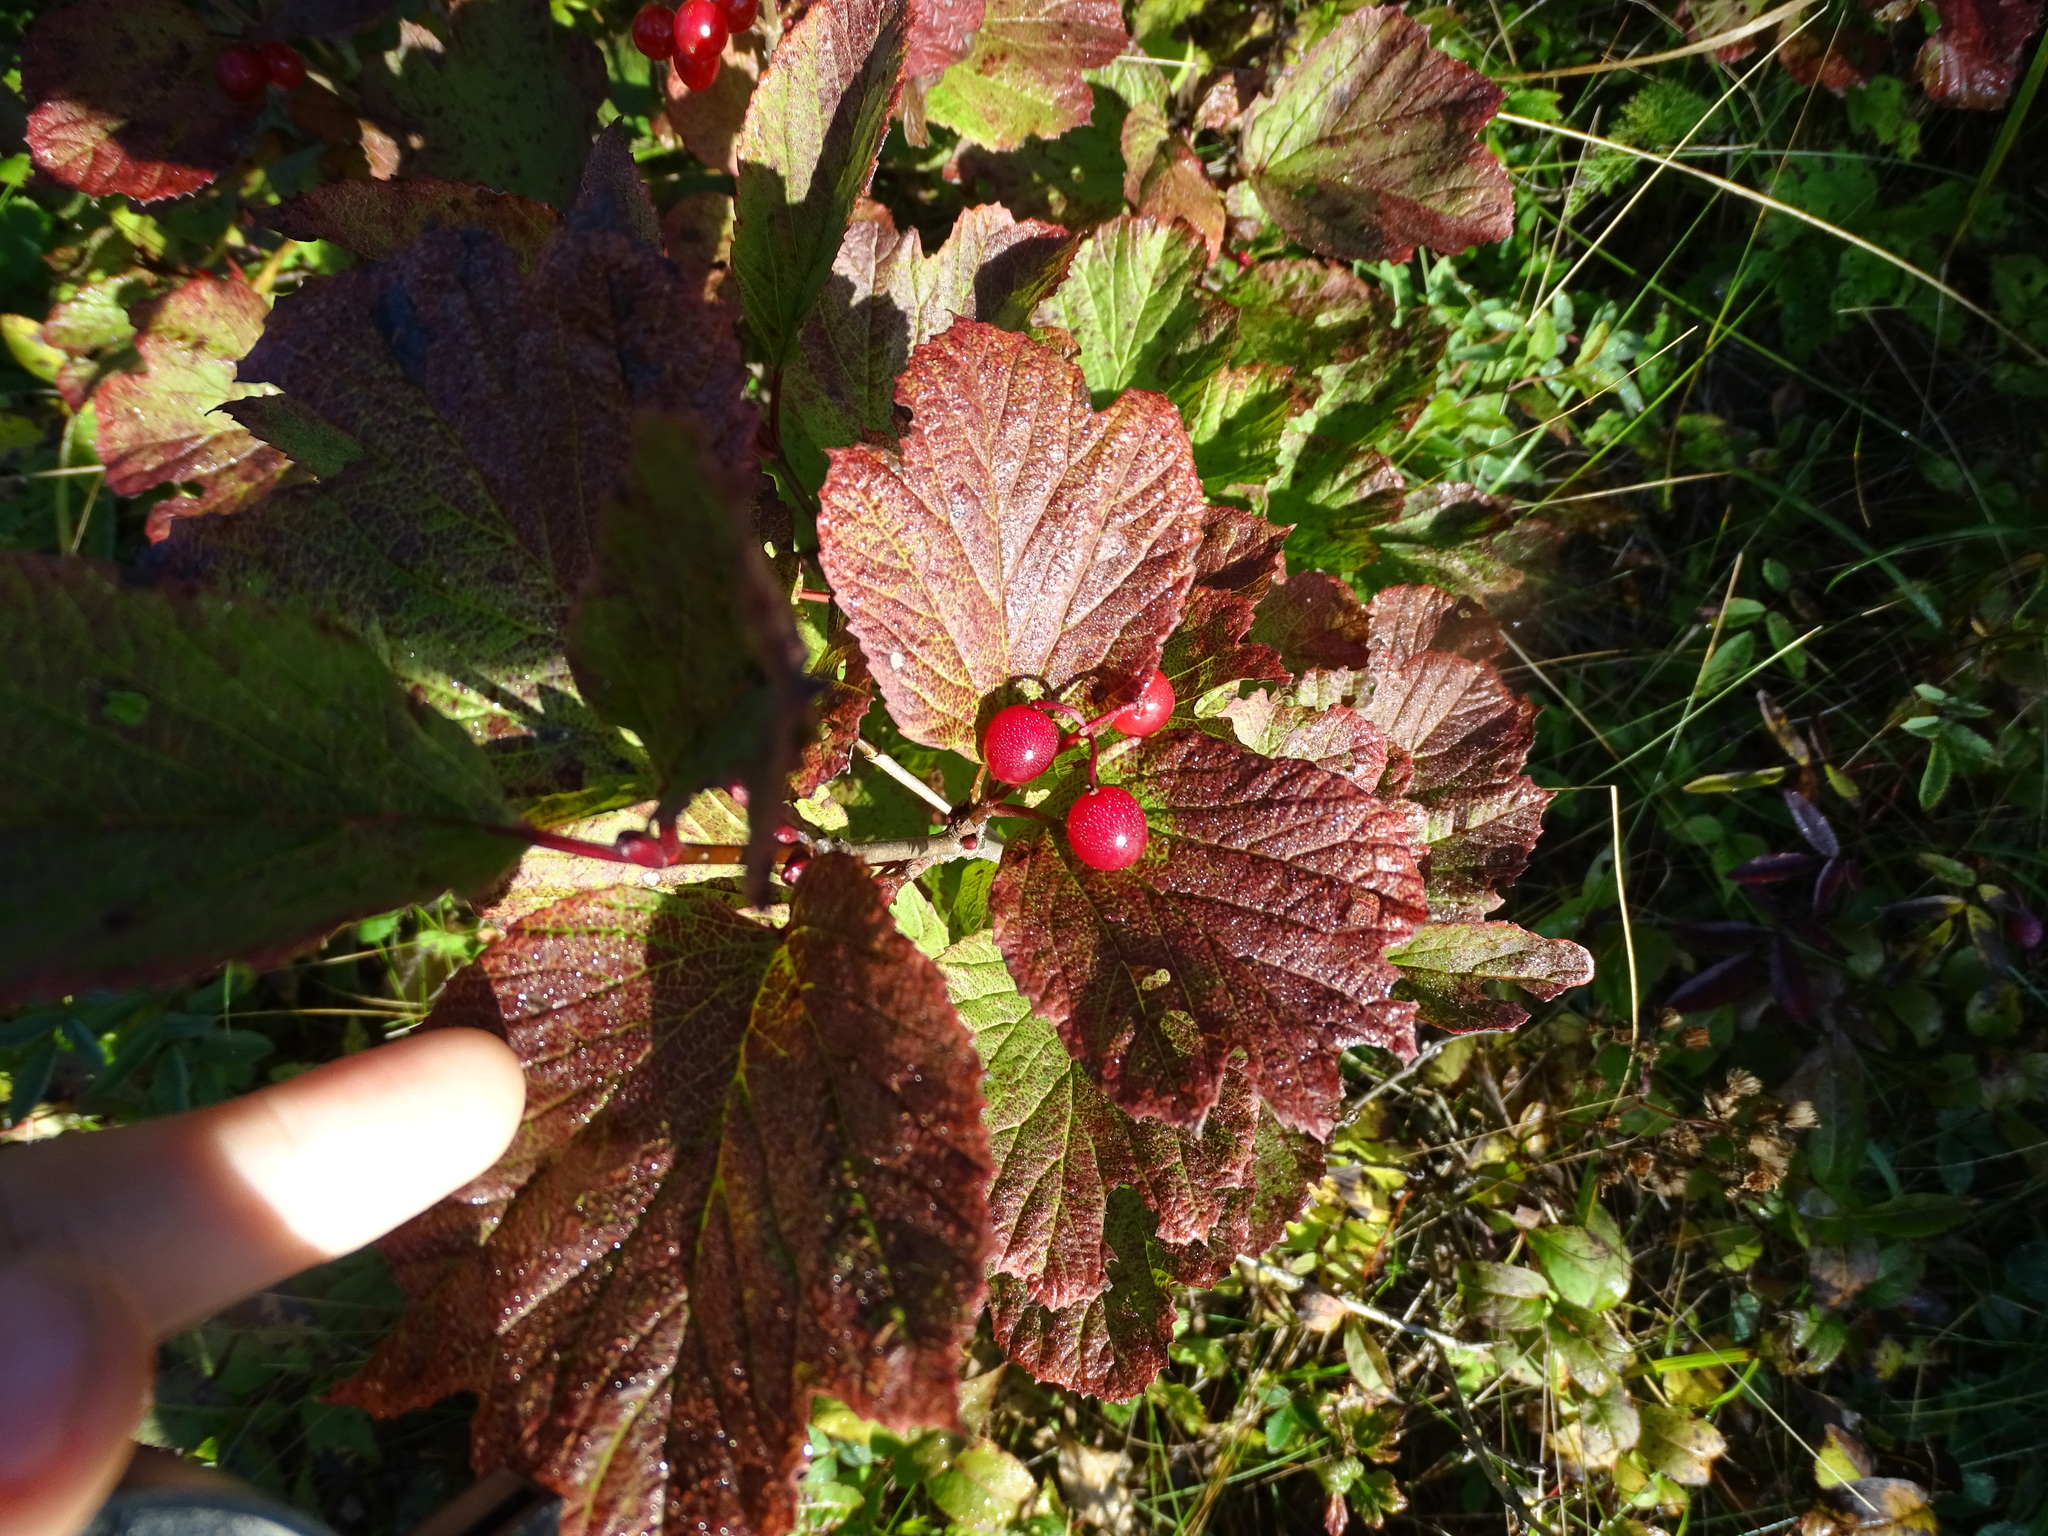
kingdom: Plantae
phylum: Tracheophyta
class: Magnoliopsida
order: Dipsacales
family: Viburnaceae
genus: Viburnum
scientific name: Viburnum edule
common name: Mooseberry
